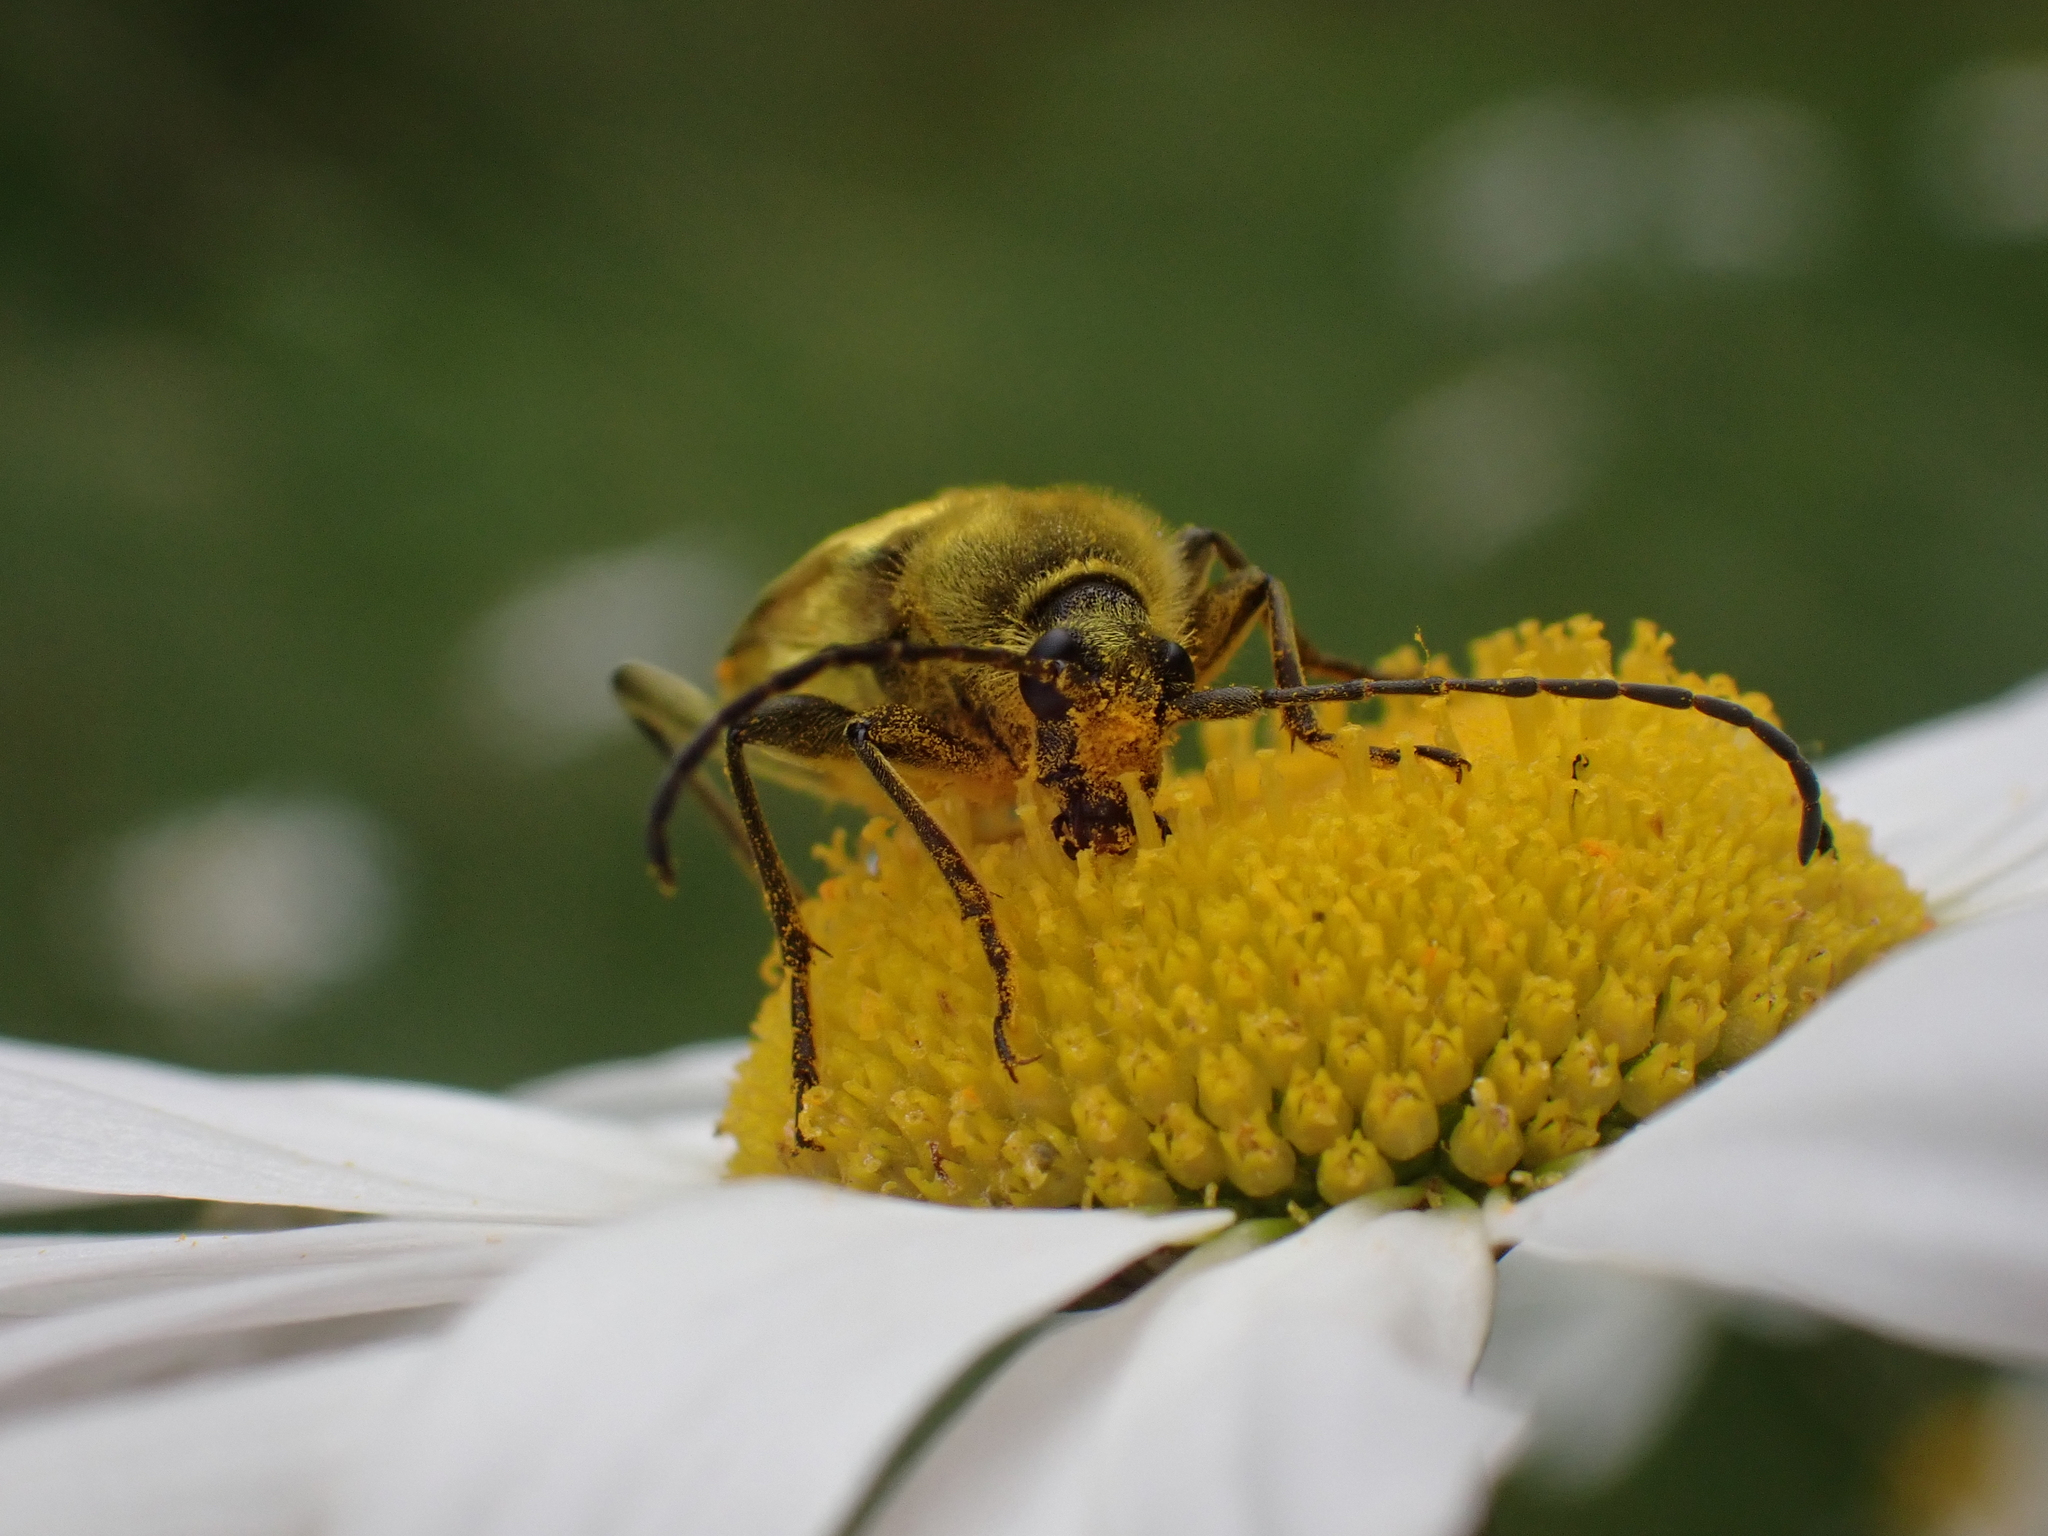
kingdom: Animalia
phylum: Arthropoda
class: Insecta
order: Coleoptera
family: Cerambycidae
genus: Cosmosalia
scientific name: Cosmosalia chrysocoma
